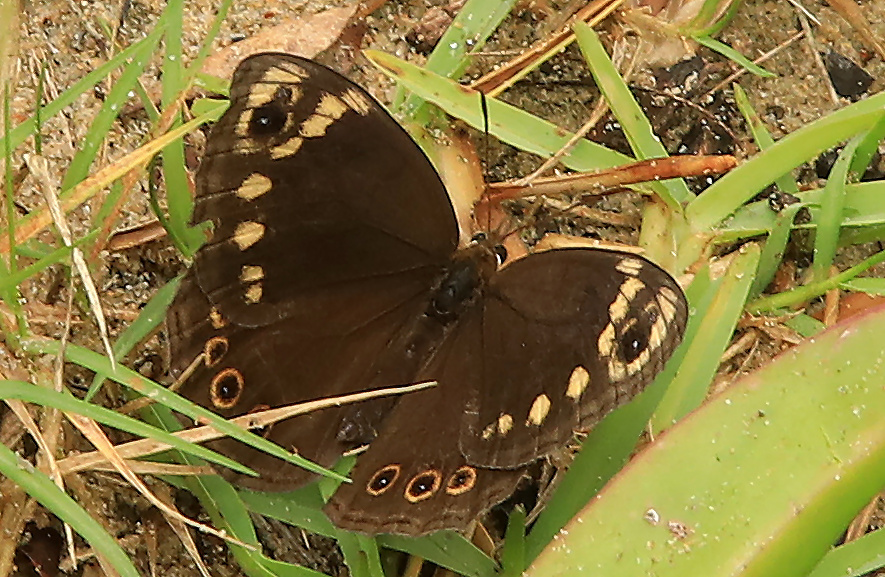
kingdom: Animalia
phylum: Arthropoda
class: Insecta
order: Lepidoptera
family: Nymphalidae
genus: Dira
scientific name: Dira clytus
